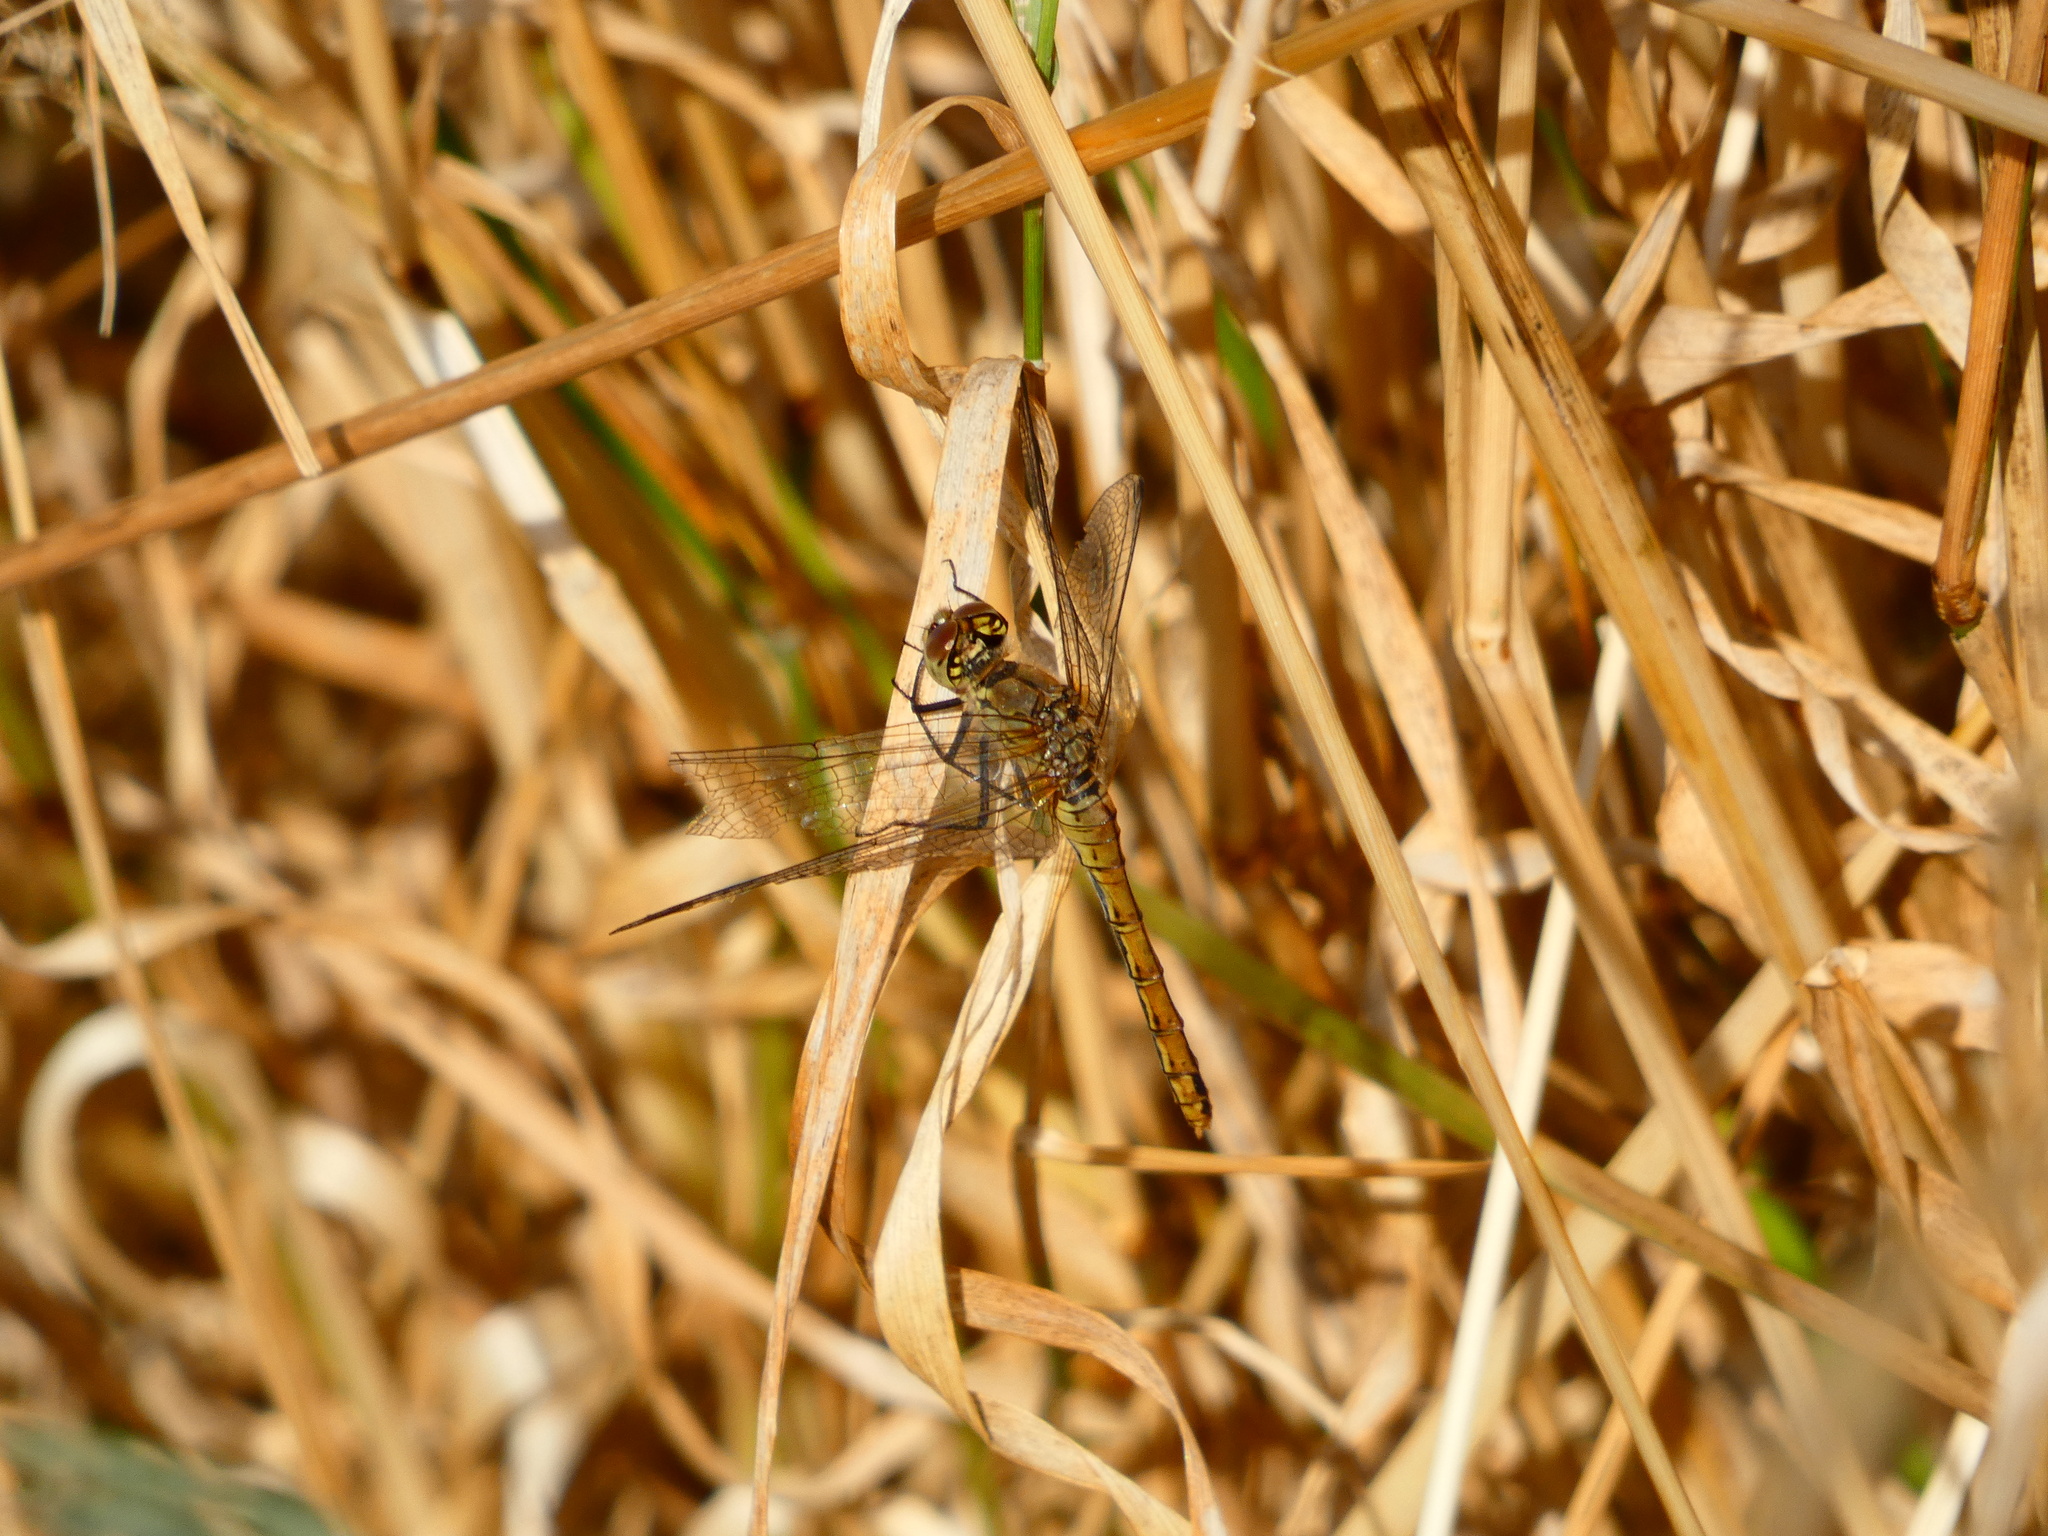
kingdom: Animalia
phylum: Arthropoda
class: Insecta
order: Odonata
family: Libellulidae
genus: Sympetrum
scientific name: Sympetrum sanguineum
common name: Ruddy darter
